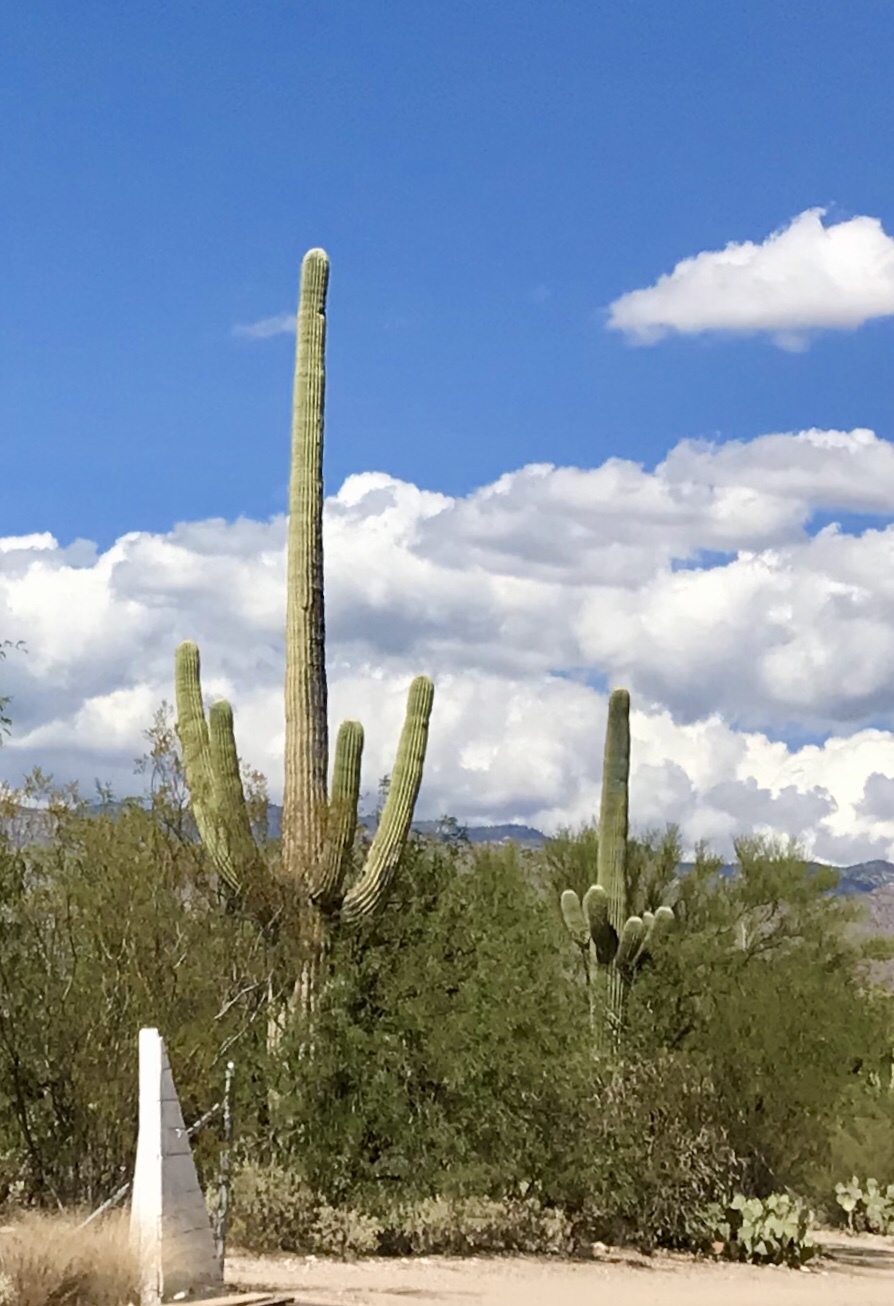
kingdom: Plantae
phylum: Tracheophyta
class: Magnoliopsida
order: Caryophyllales
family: Cactaceae
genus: Carnegiea
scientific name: Carnegiea gigantea
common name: Saguaro
